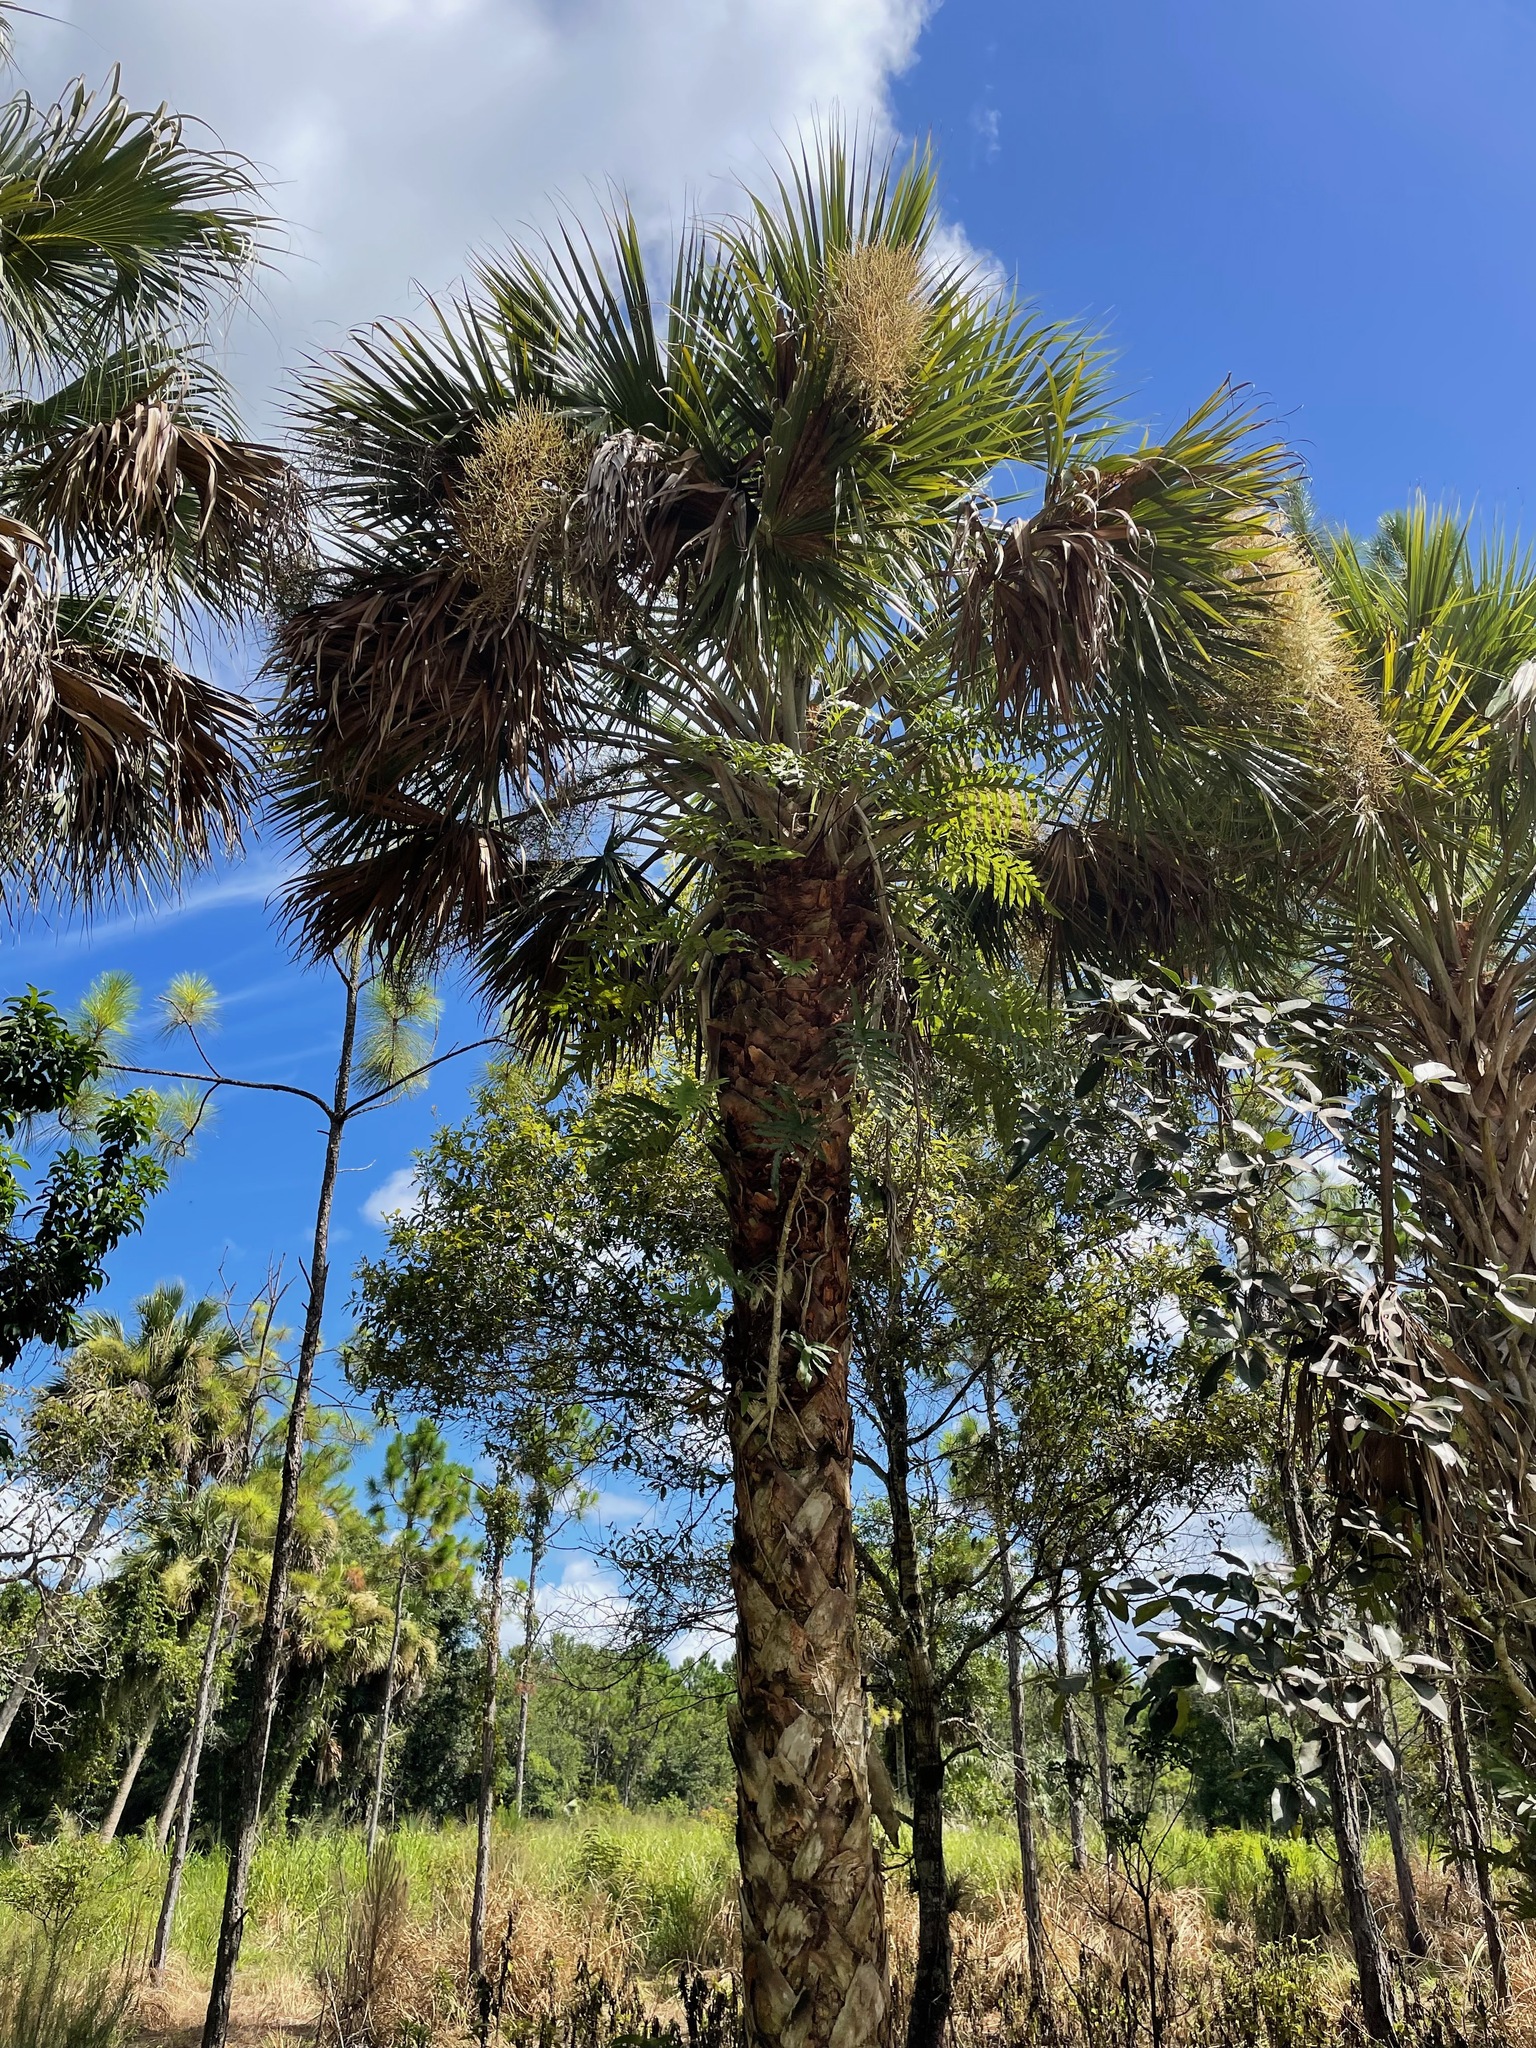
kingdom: Plantae
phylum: Tracheophyta
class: Liliopsida
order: Arecales
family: Arecaceae
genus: Sabal
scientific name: Sabal palmetto
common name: Blue palmetto
